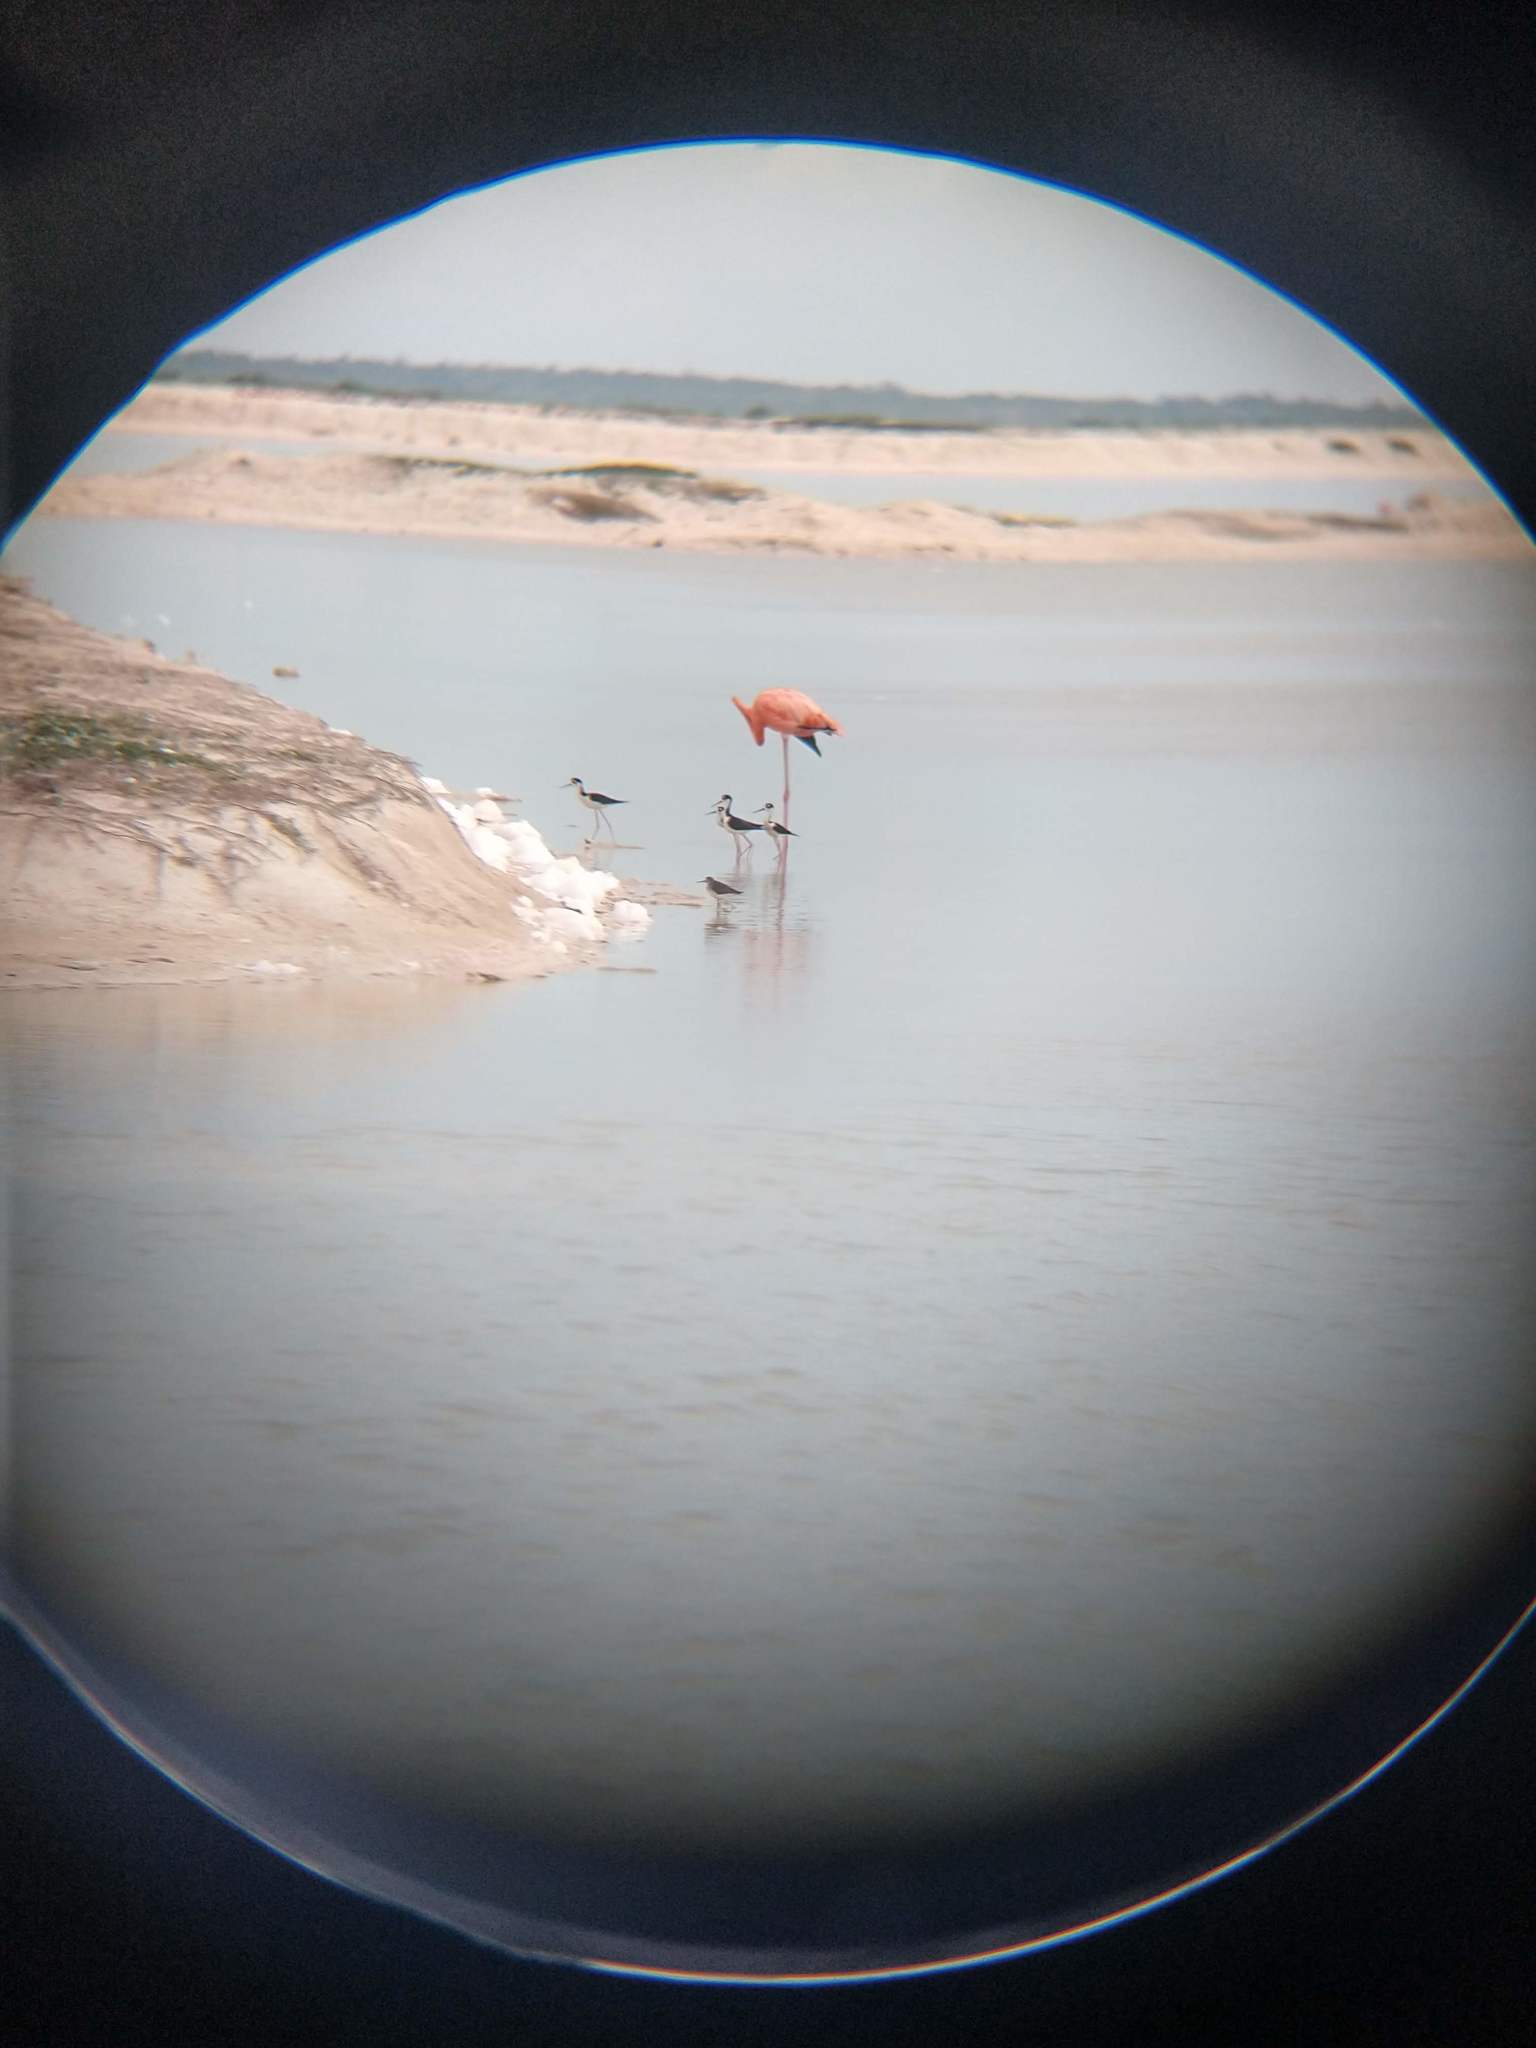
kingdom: Animalia
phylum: Chordata
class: Aves
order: Charadriiformes
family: Recurvirostridae
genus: Himantopus
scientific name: Himantopus mexicanus
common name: Black-necked stilt
